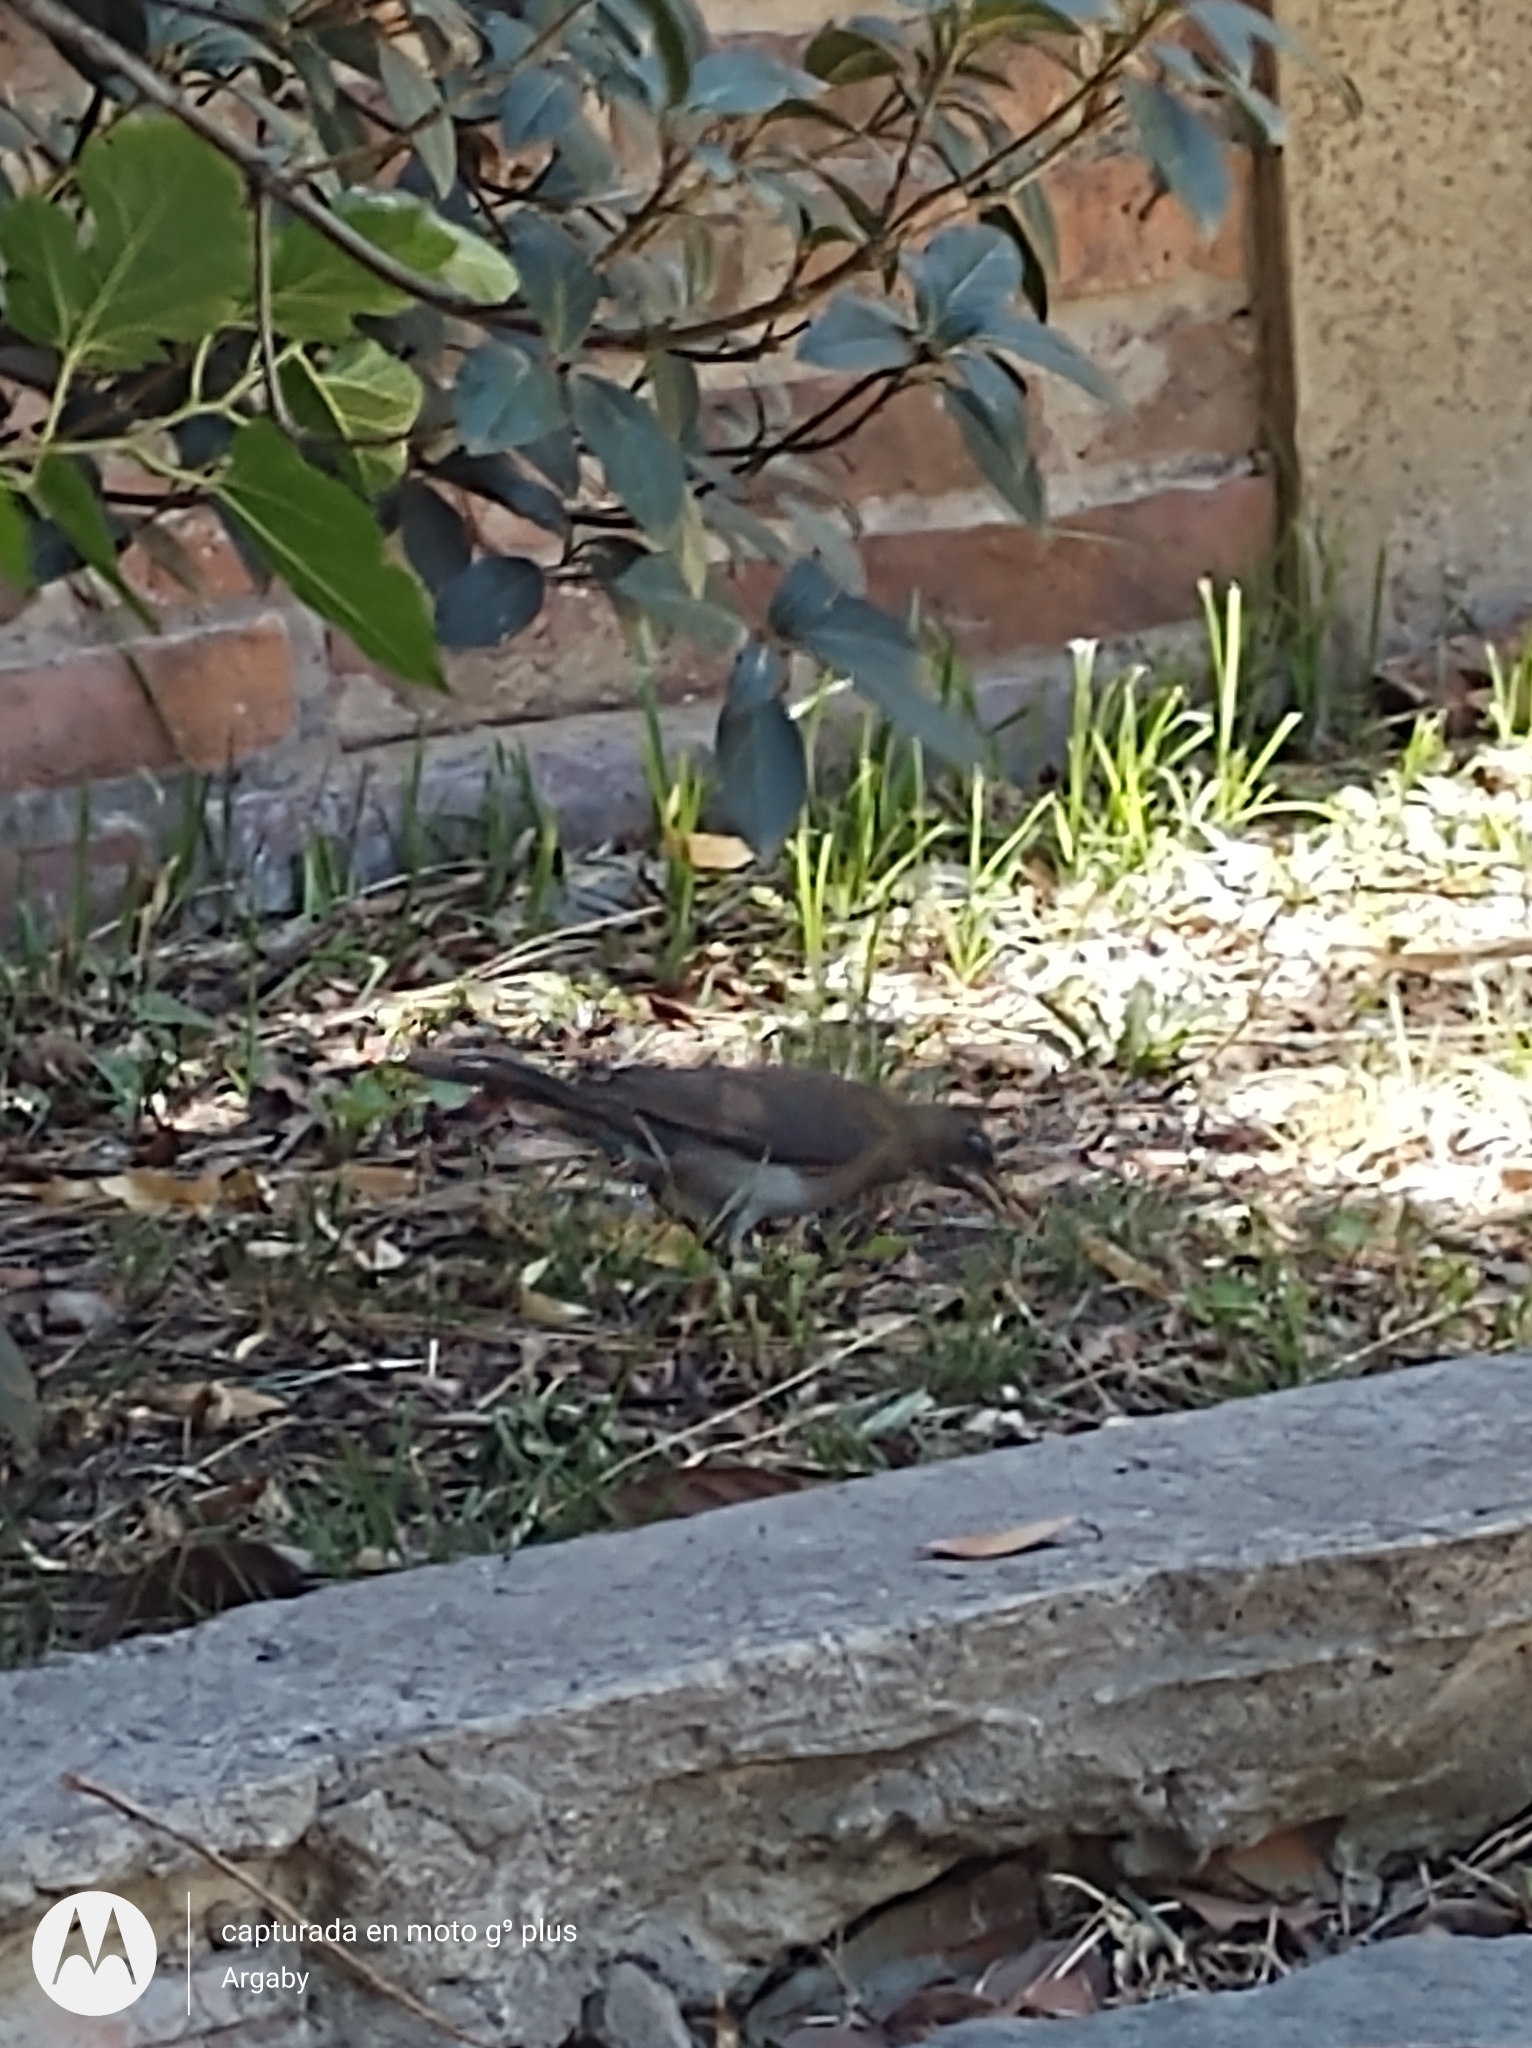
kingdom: Animalia
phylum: Chordata
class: Aves
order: Passeriformes
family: Turdidae
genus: Turdus
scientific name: Turdus amaurochalinus
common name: Creamy-bellied thrush
